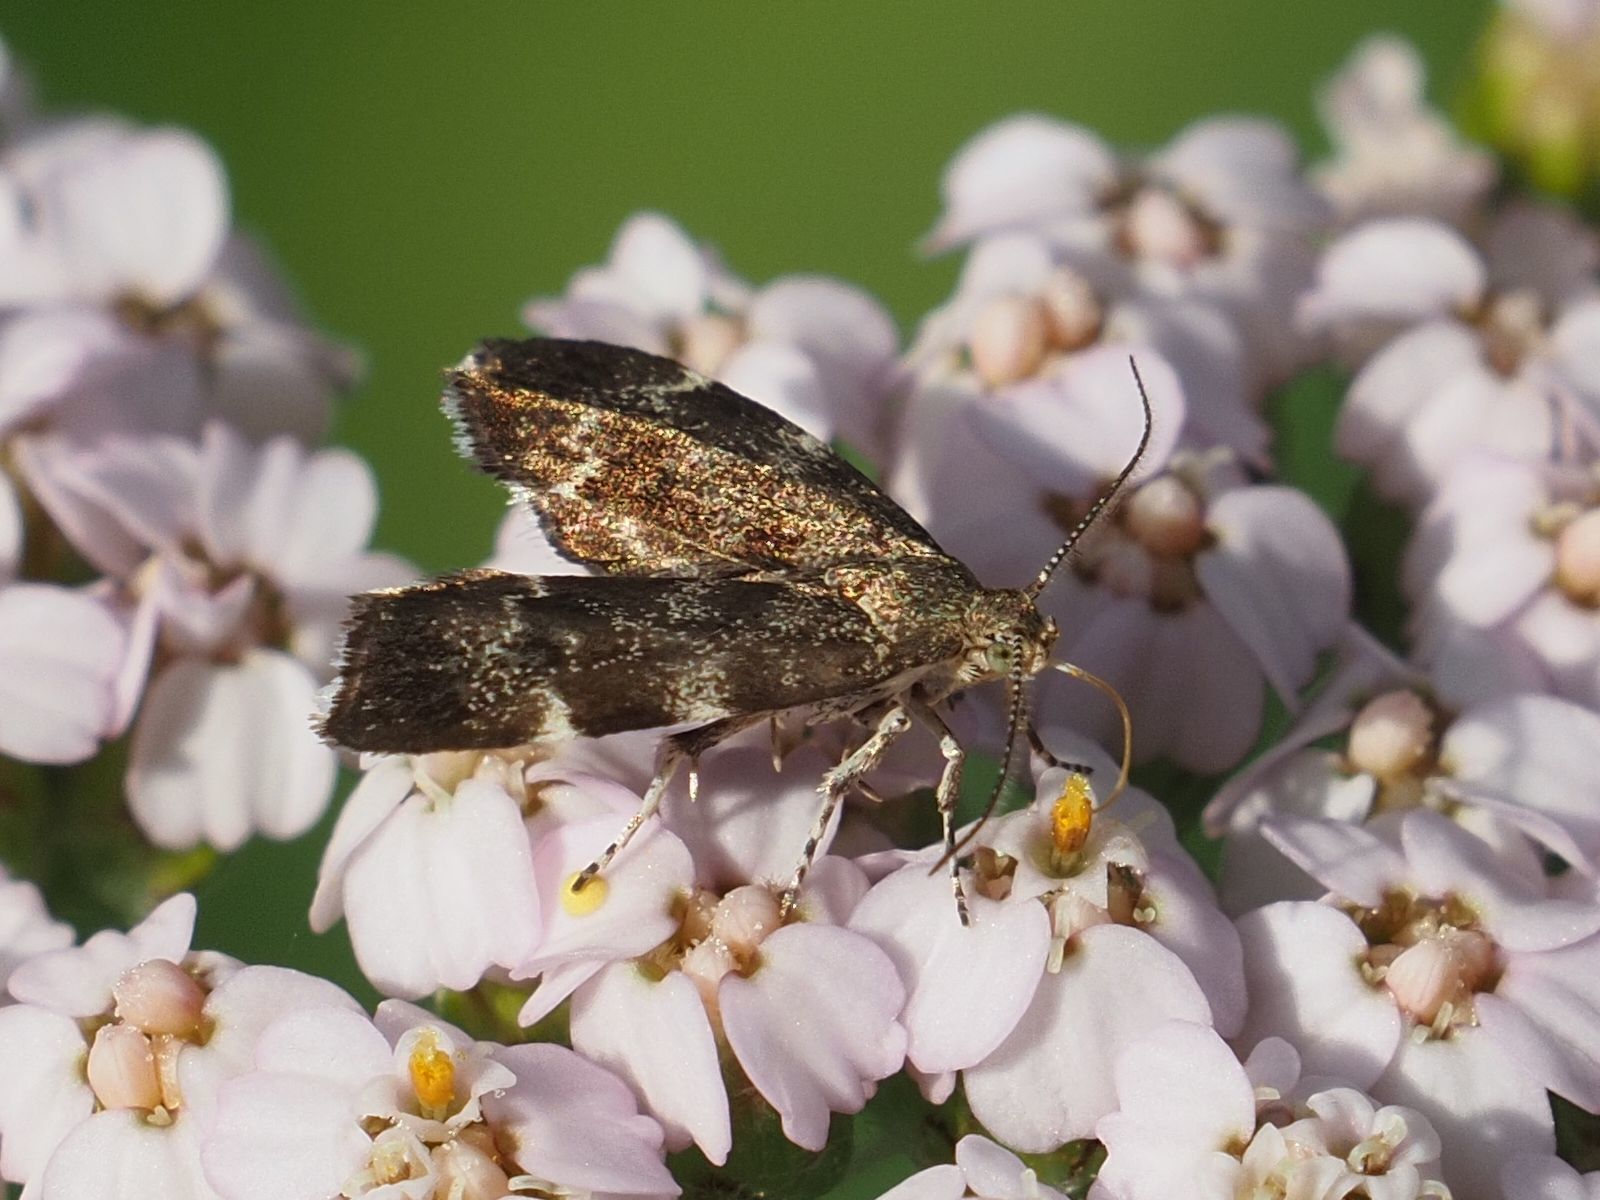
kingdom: Animalia
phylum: Arthropoda
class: Insecta
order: Lepidoptera
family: Choreutidae
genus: Anthophila
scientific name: Anthophila fabriciana
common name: Nettle-tap
